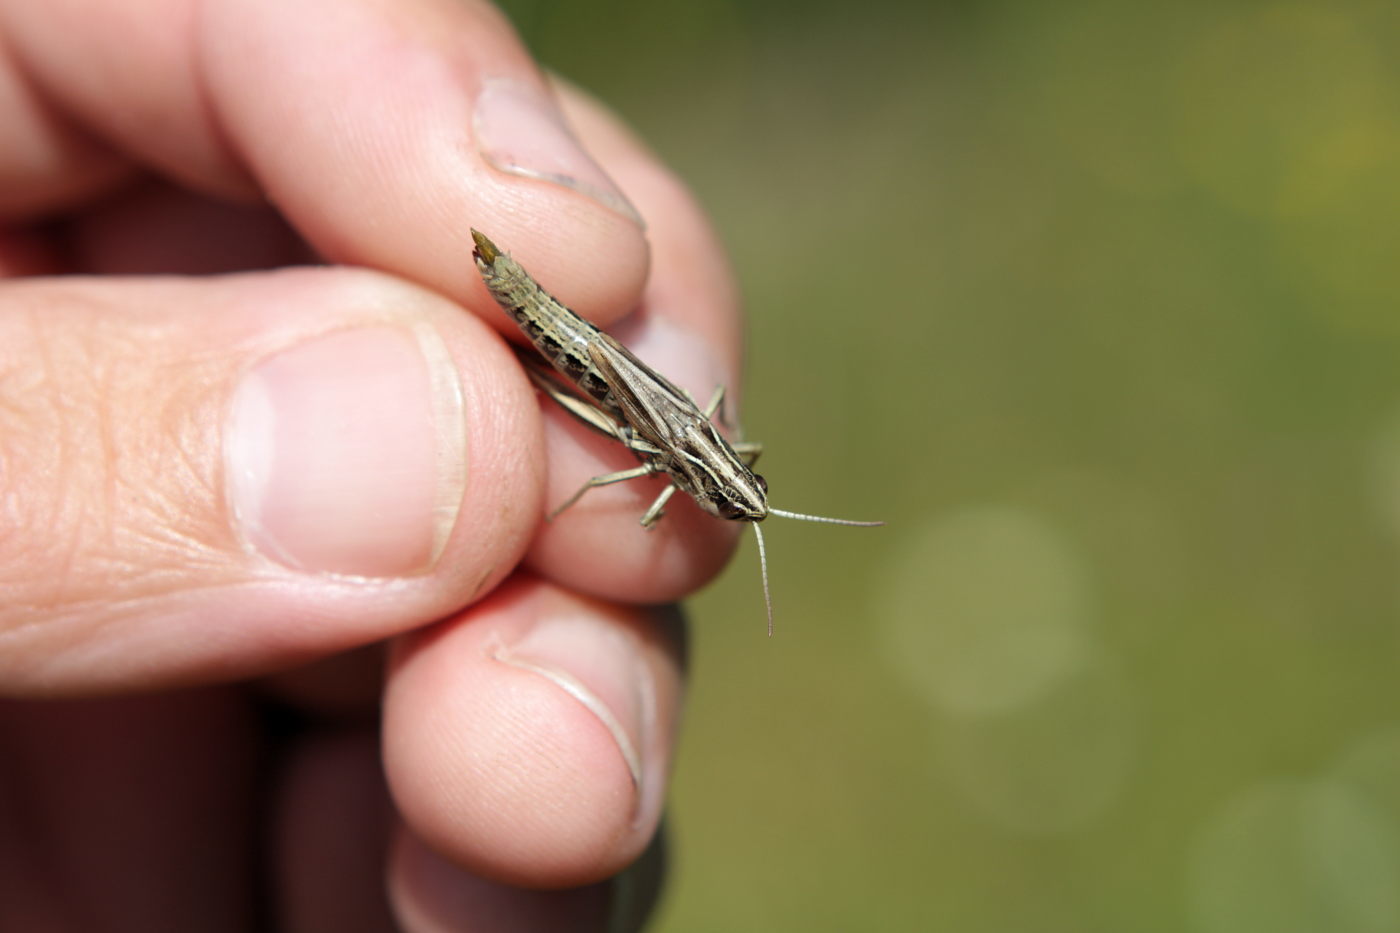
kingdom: Animalia
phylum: Arthropoda
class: Insecta
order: Orthoptera
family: Acrididae
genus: Pseudochorthippus
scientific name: Pseudochorthippus parallelus
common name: Meadow grasshopper
